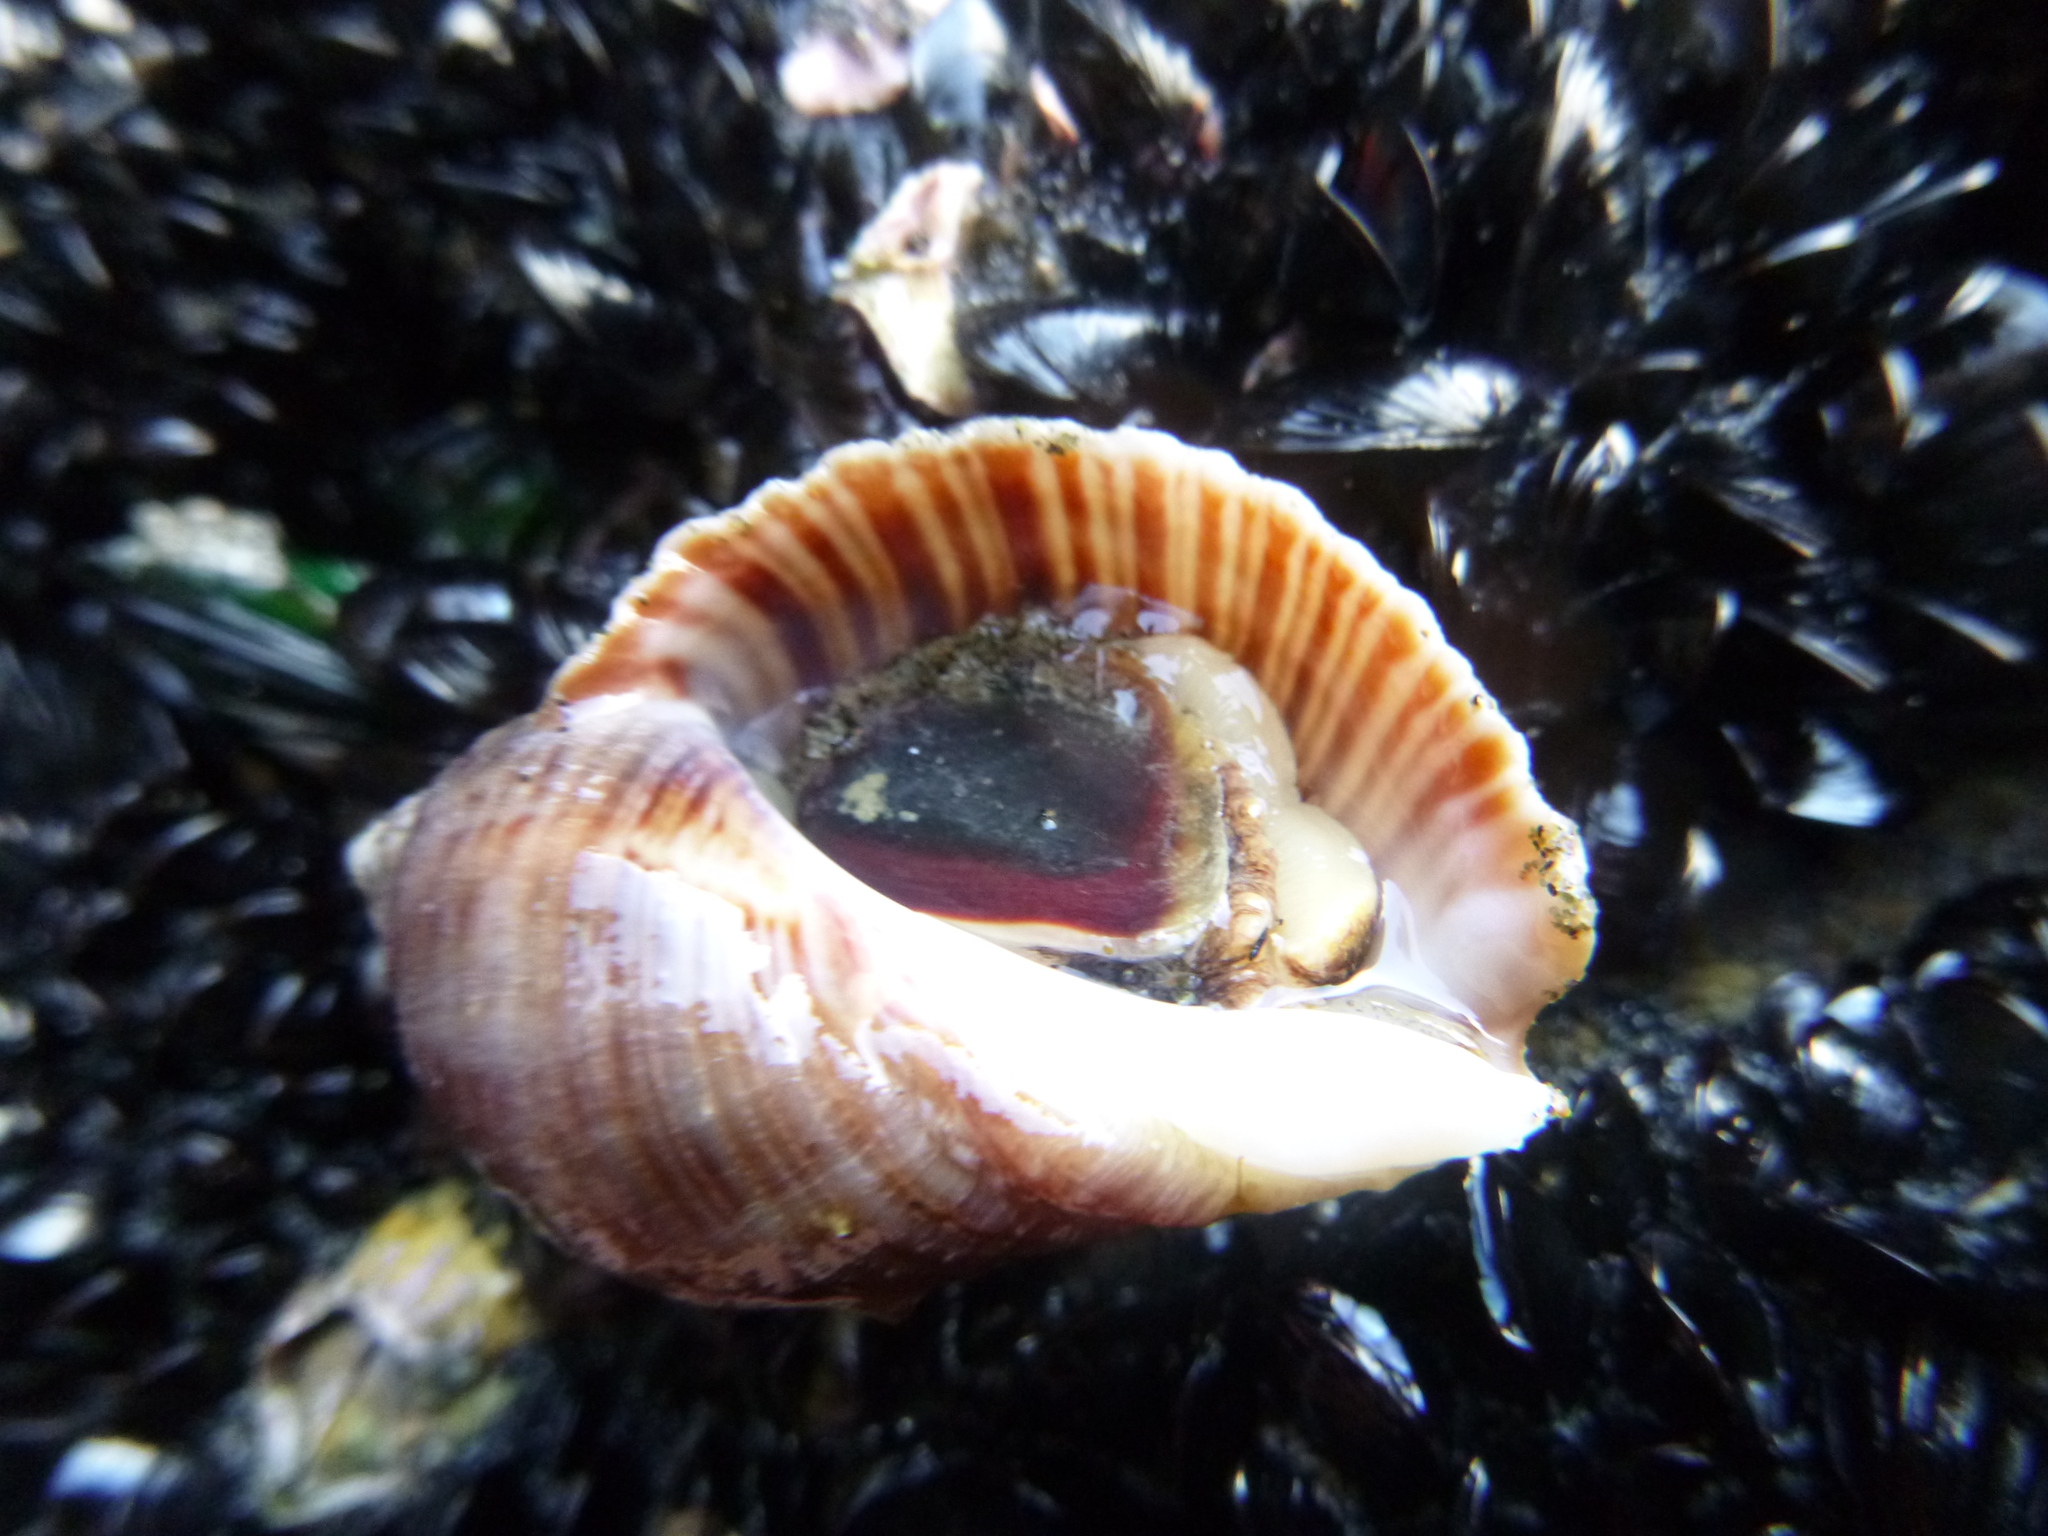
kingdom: Animalia
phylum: Mollusca
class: Gastropoda
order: Neogastropoda
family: Muricidae
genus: Dicathais
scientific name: Dicathais orbita
